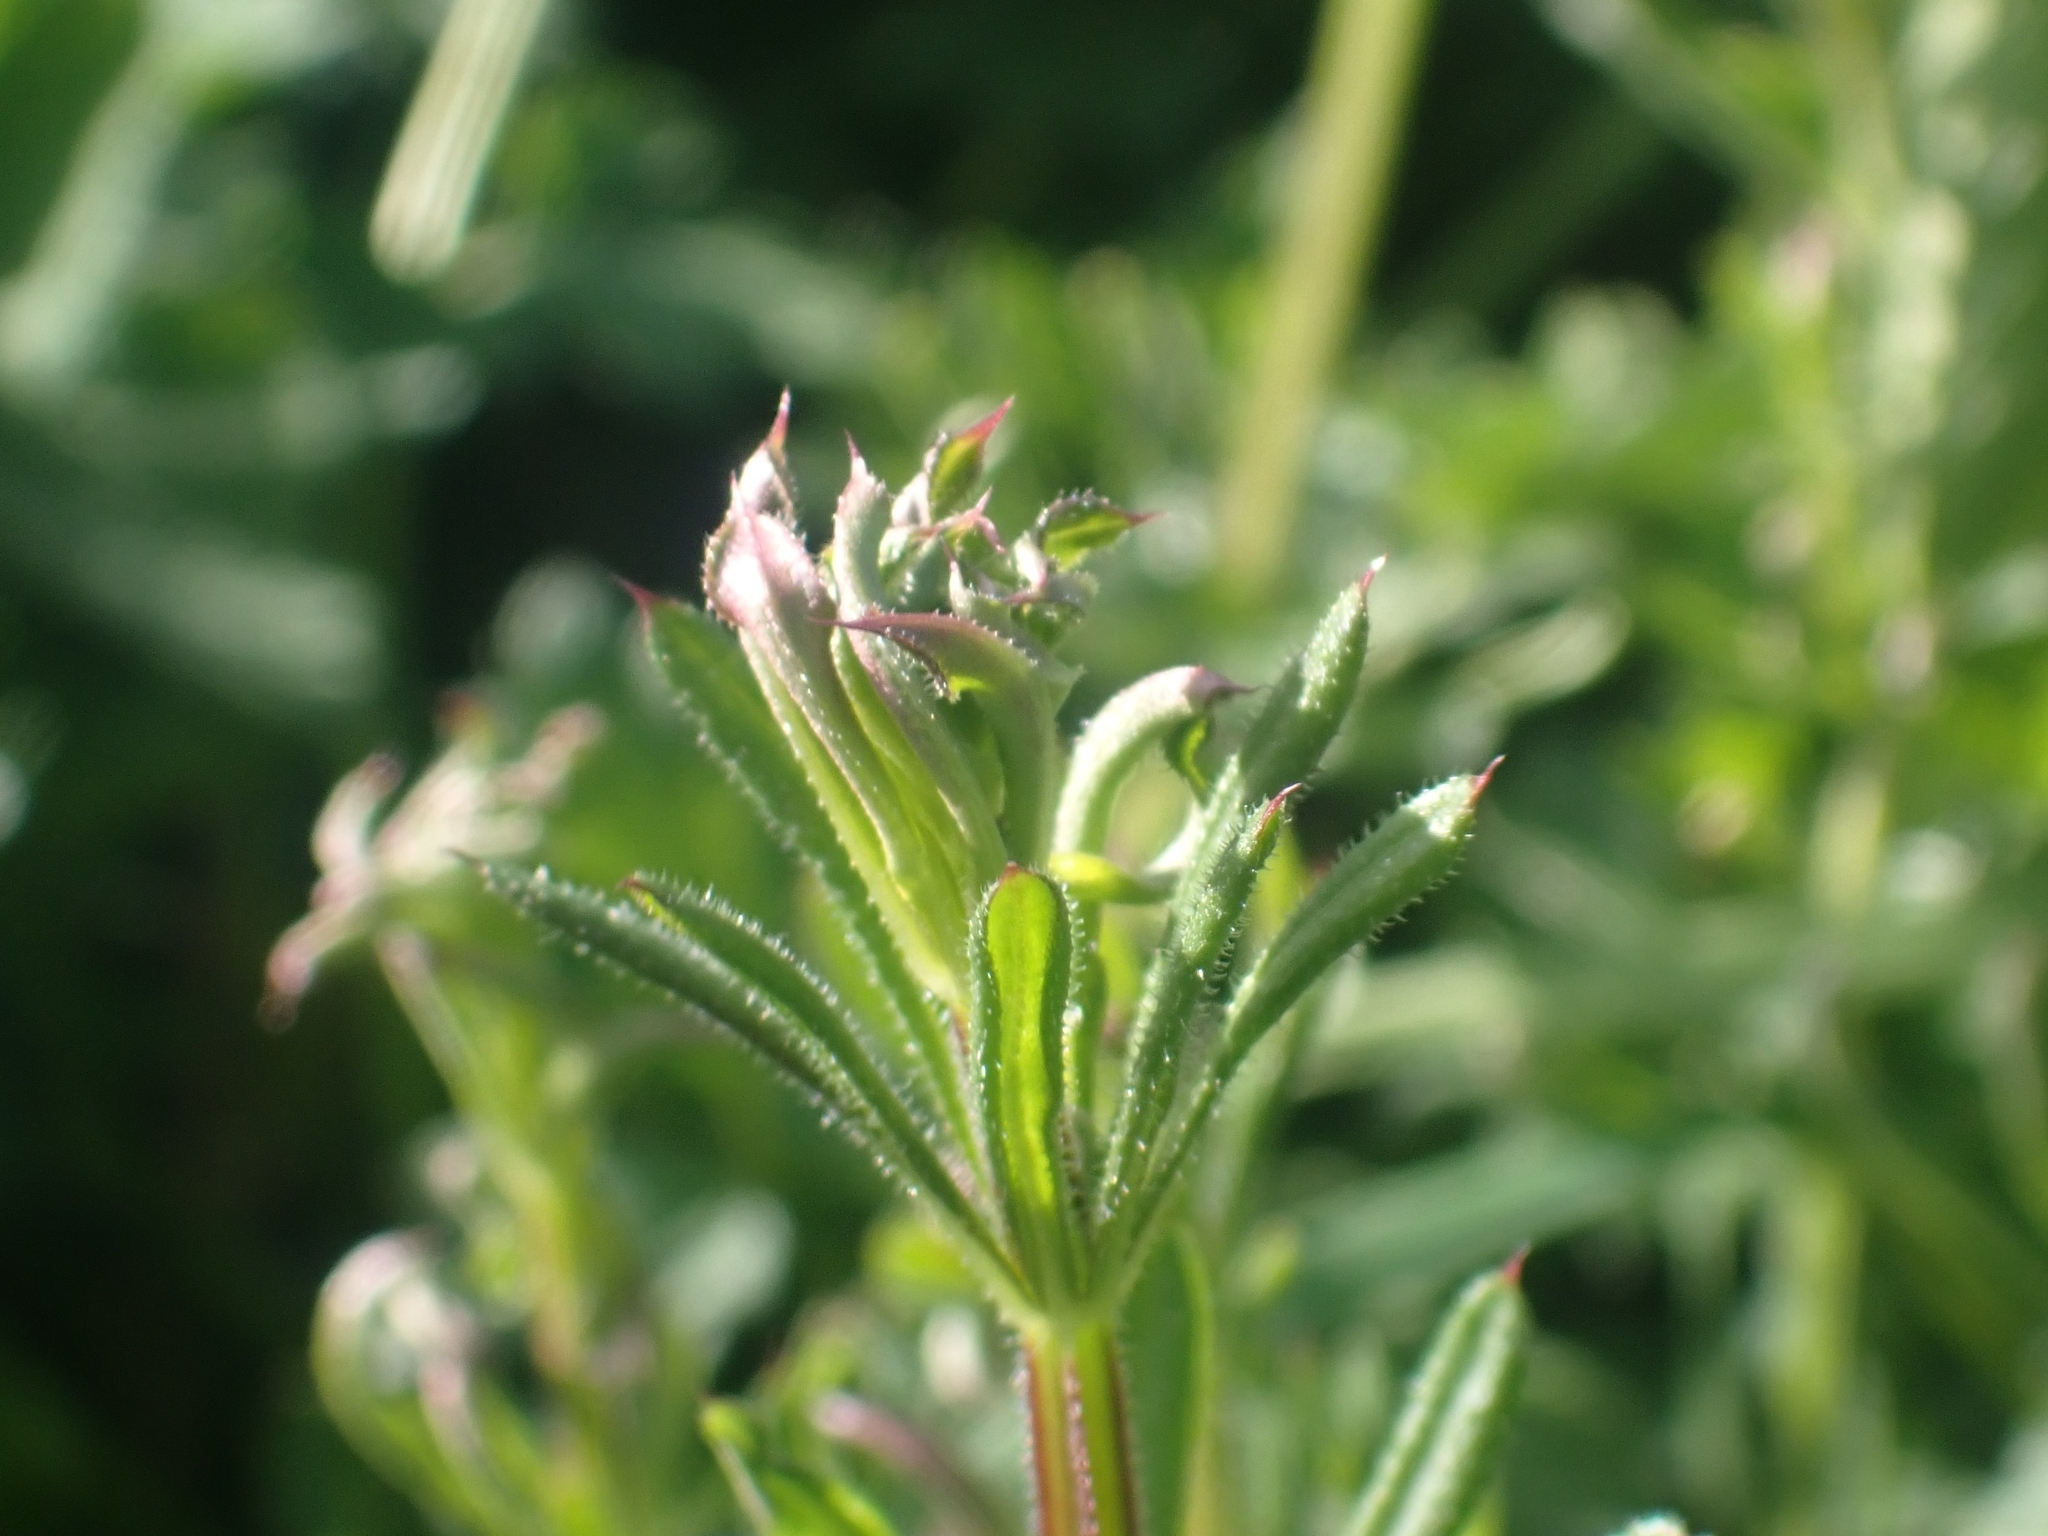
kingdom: Plantae
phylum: Tracheophyta
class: Magnoliopsida
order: Gentianales
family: Rubiaceae
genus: Galium
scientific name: Galium aparine
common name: Cleavers
